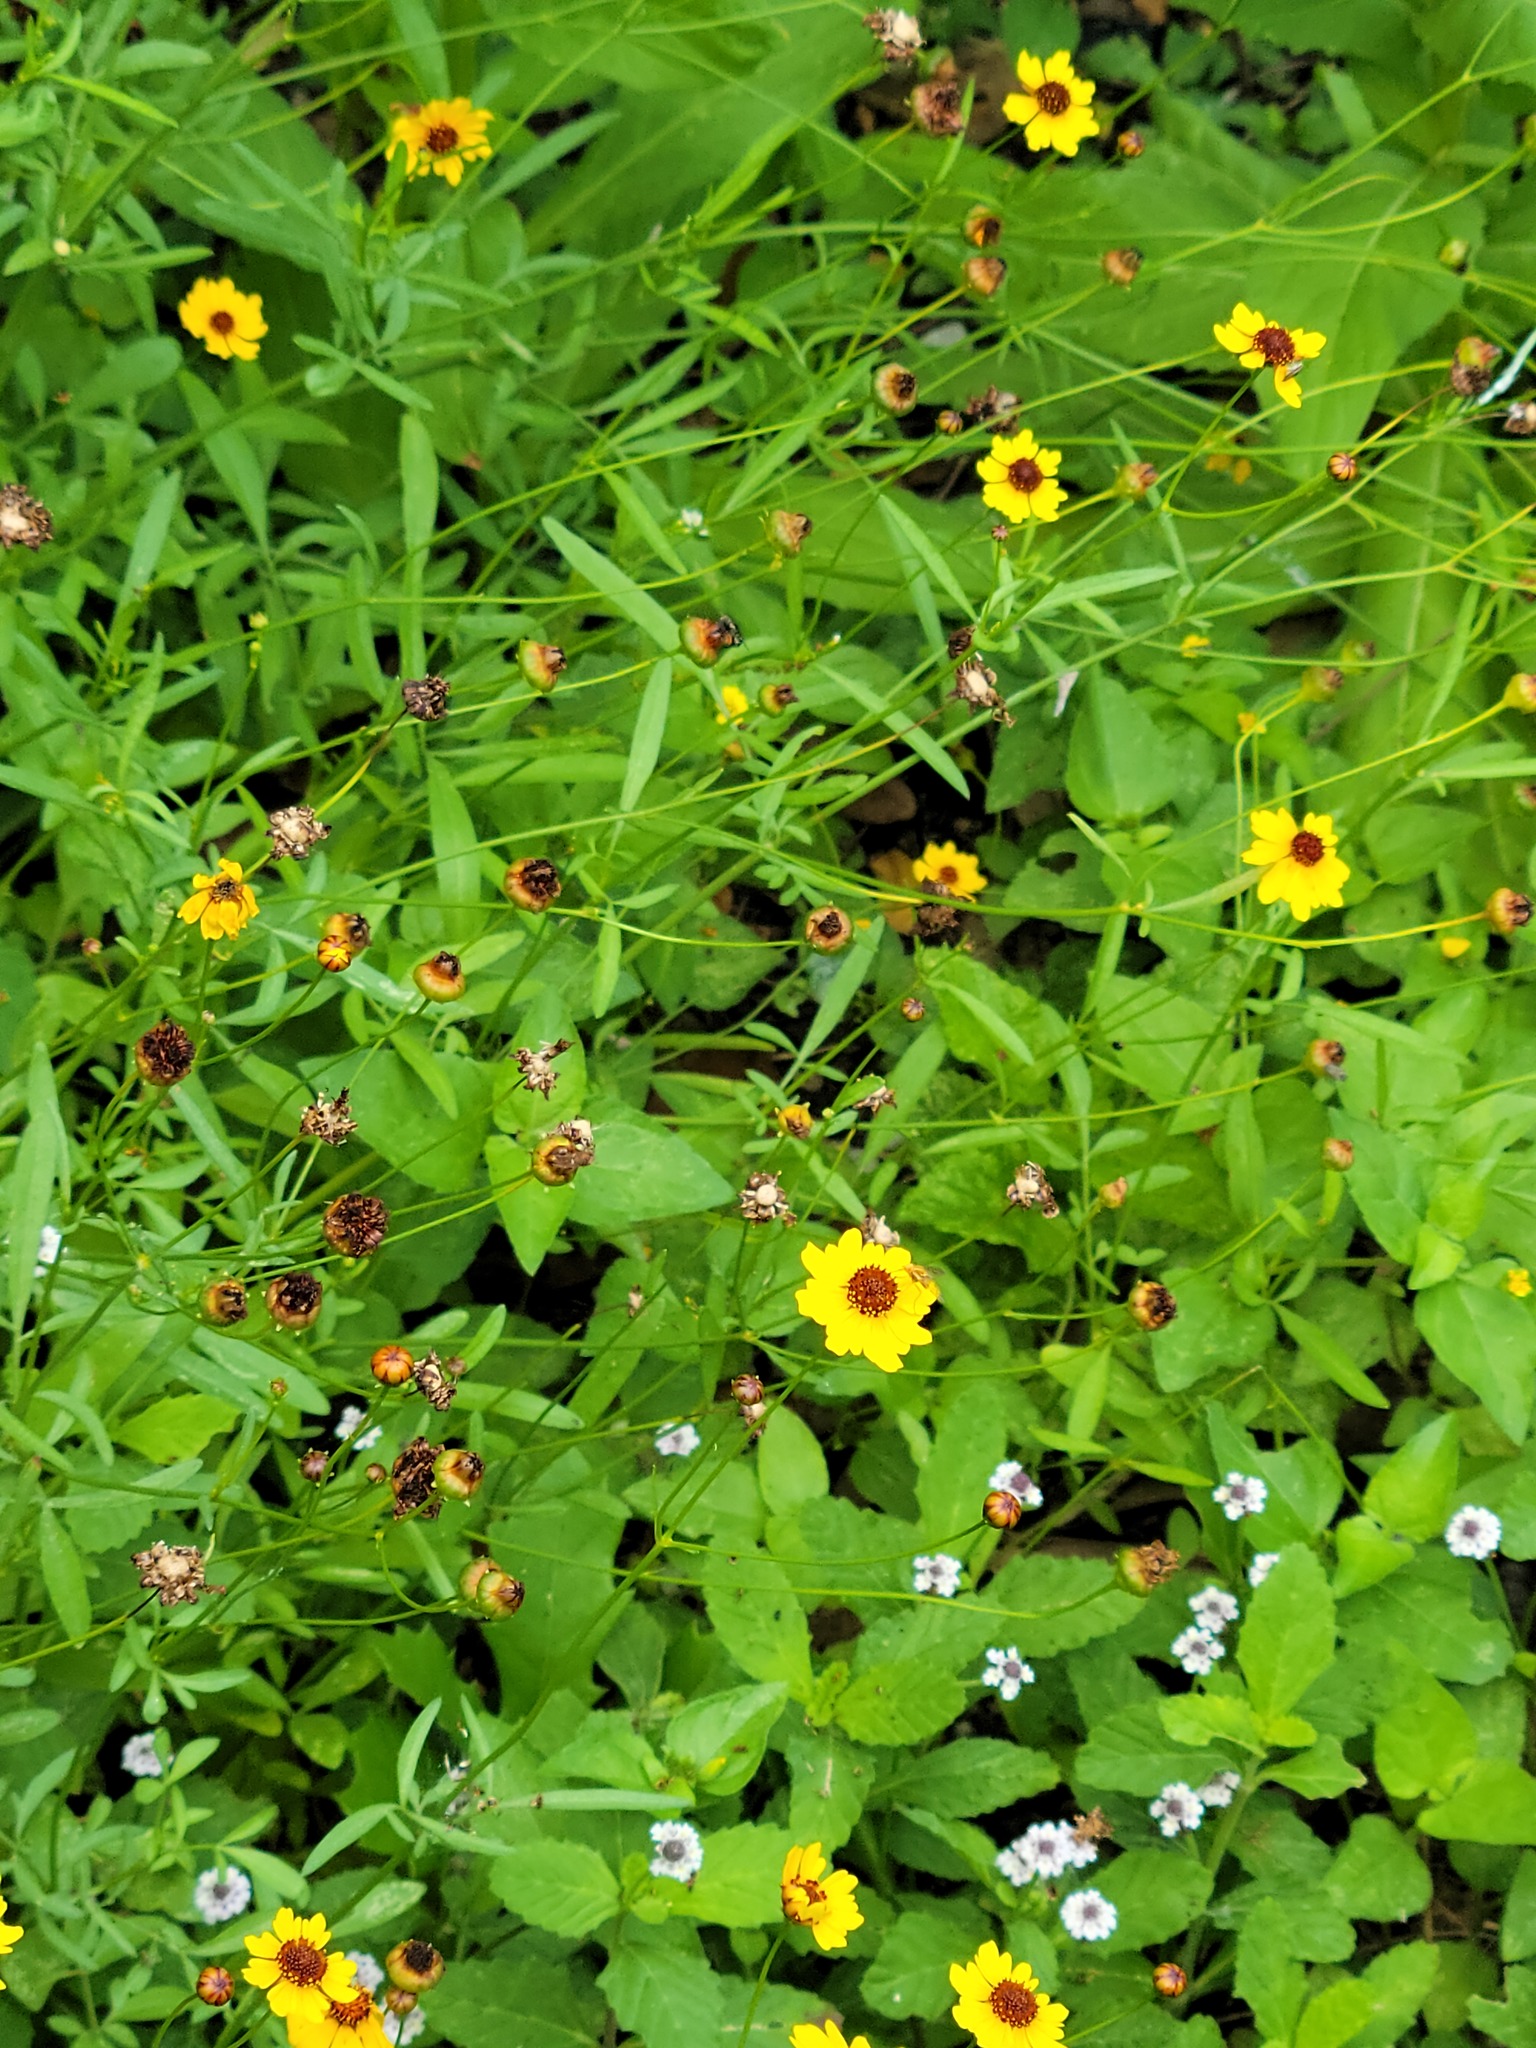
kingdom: Plantae
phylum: Tracheophyta
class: Magnoliopsida
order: Asterales
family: Asteraceae
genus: Coreopsis
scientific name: Coreopsis basalis
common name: Golden-mane coreopsis
